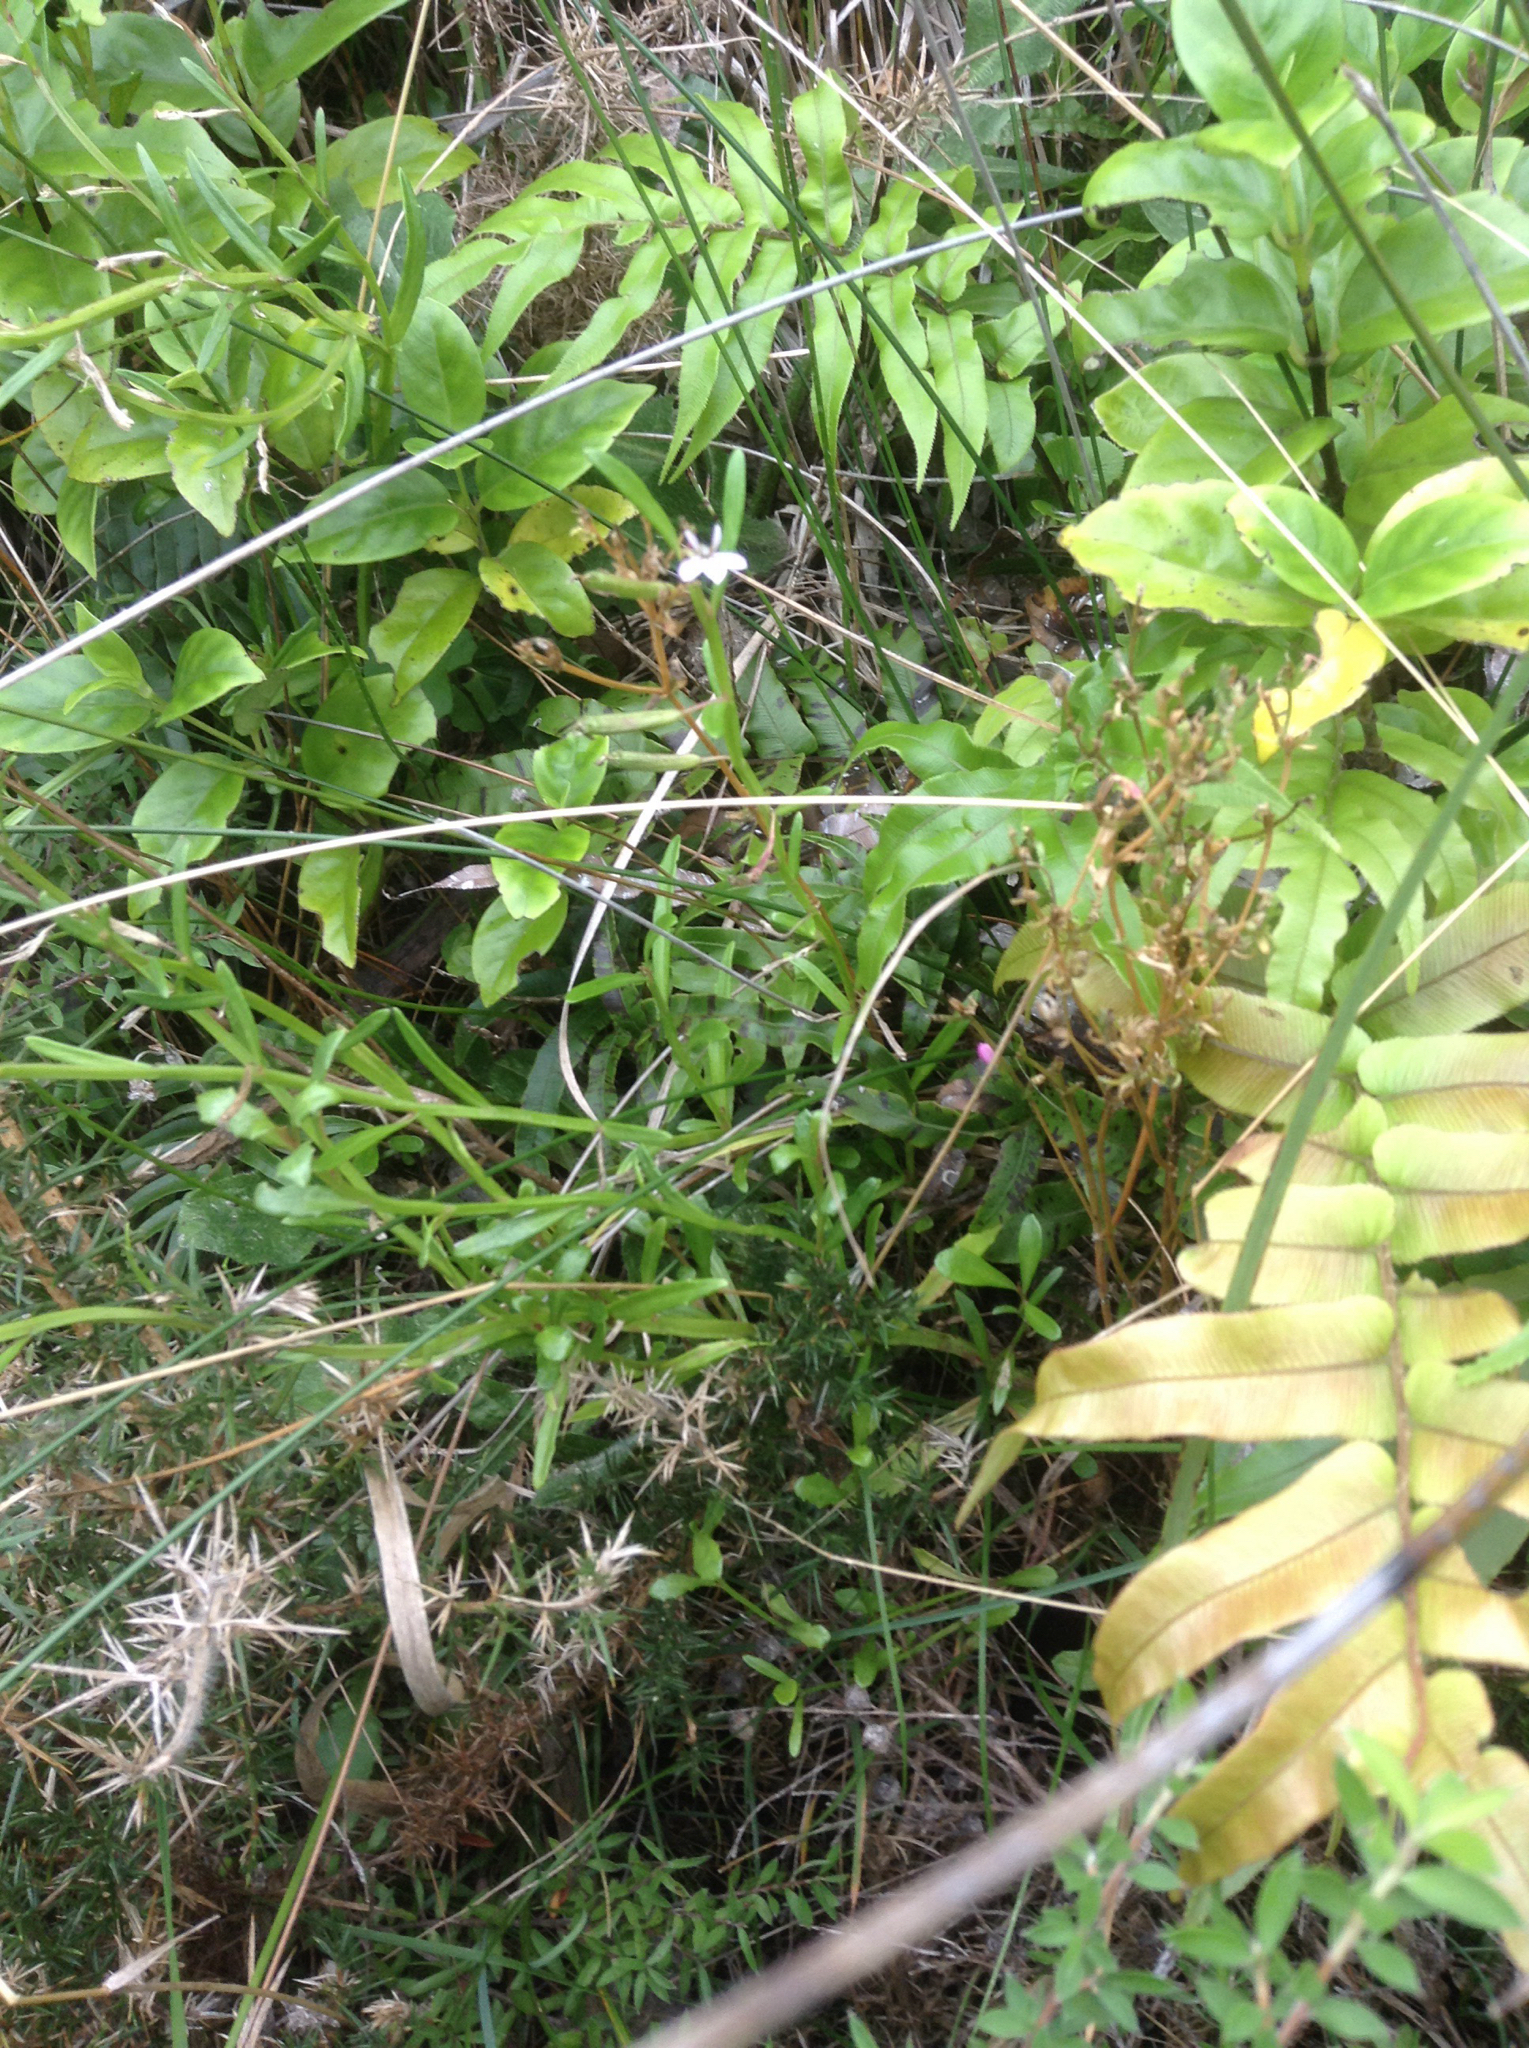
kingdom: Plantae
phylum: Tracheophyta
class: Magnoliopsida
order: Asterales
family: Campanulaceae
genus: Lobelia
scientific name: Lobelia anceps
